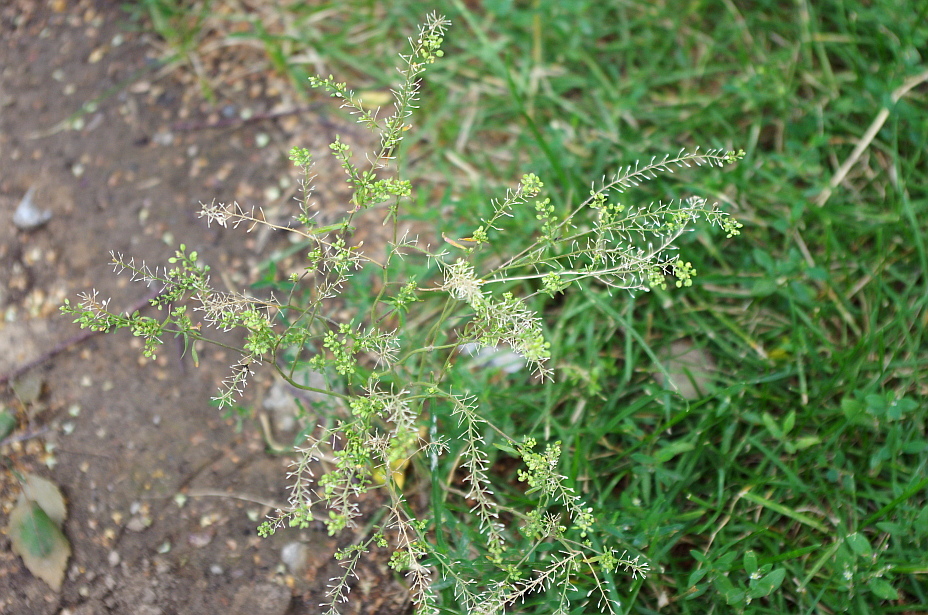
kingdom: Plantae
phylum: Tracheophyta
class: Magnoliopsida
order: Brassicales
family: Brassicaceae
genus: Lepidium
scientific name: Lepidium ruderale
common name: Narrow-leaved pepperwort
